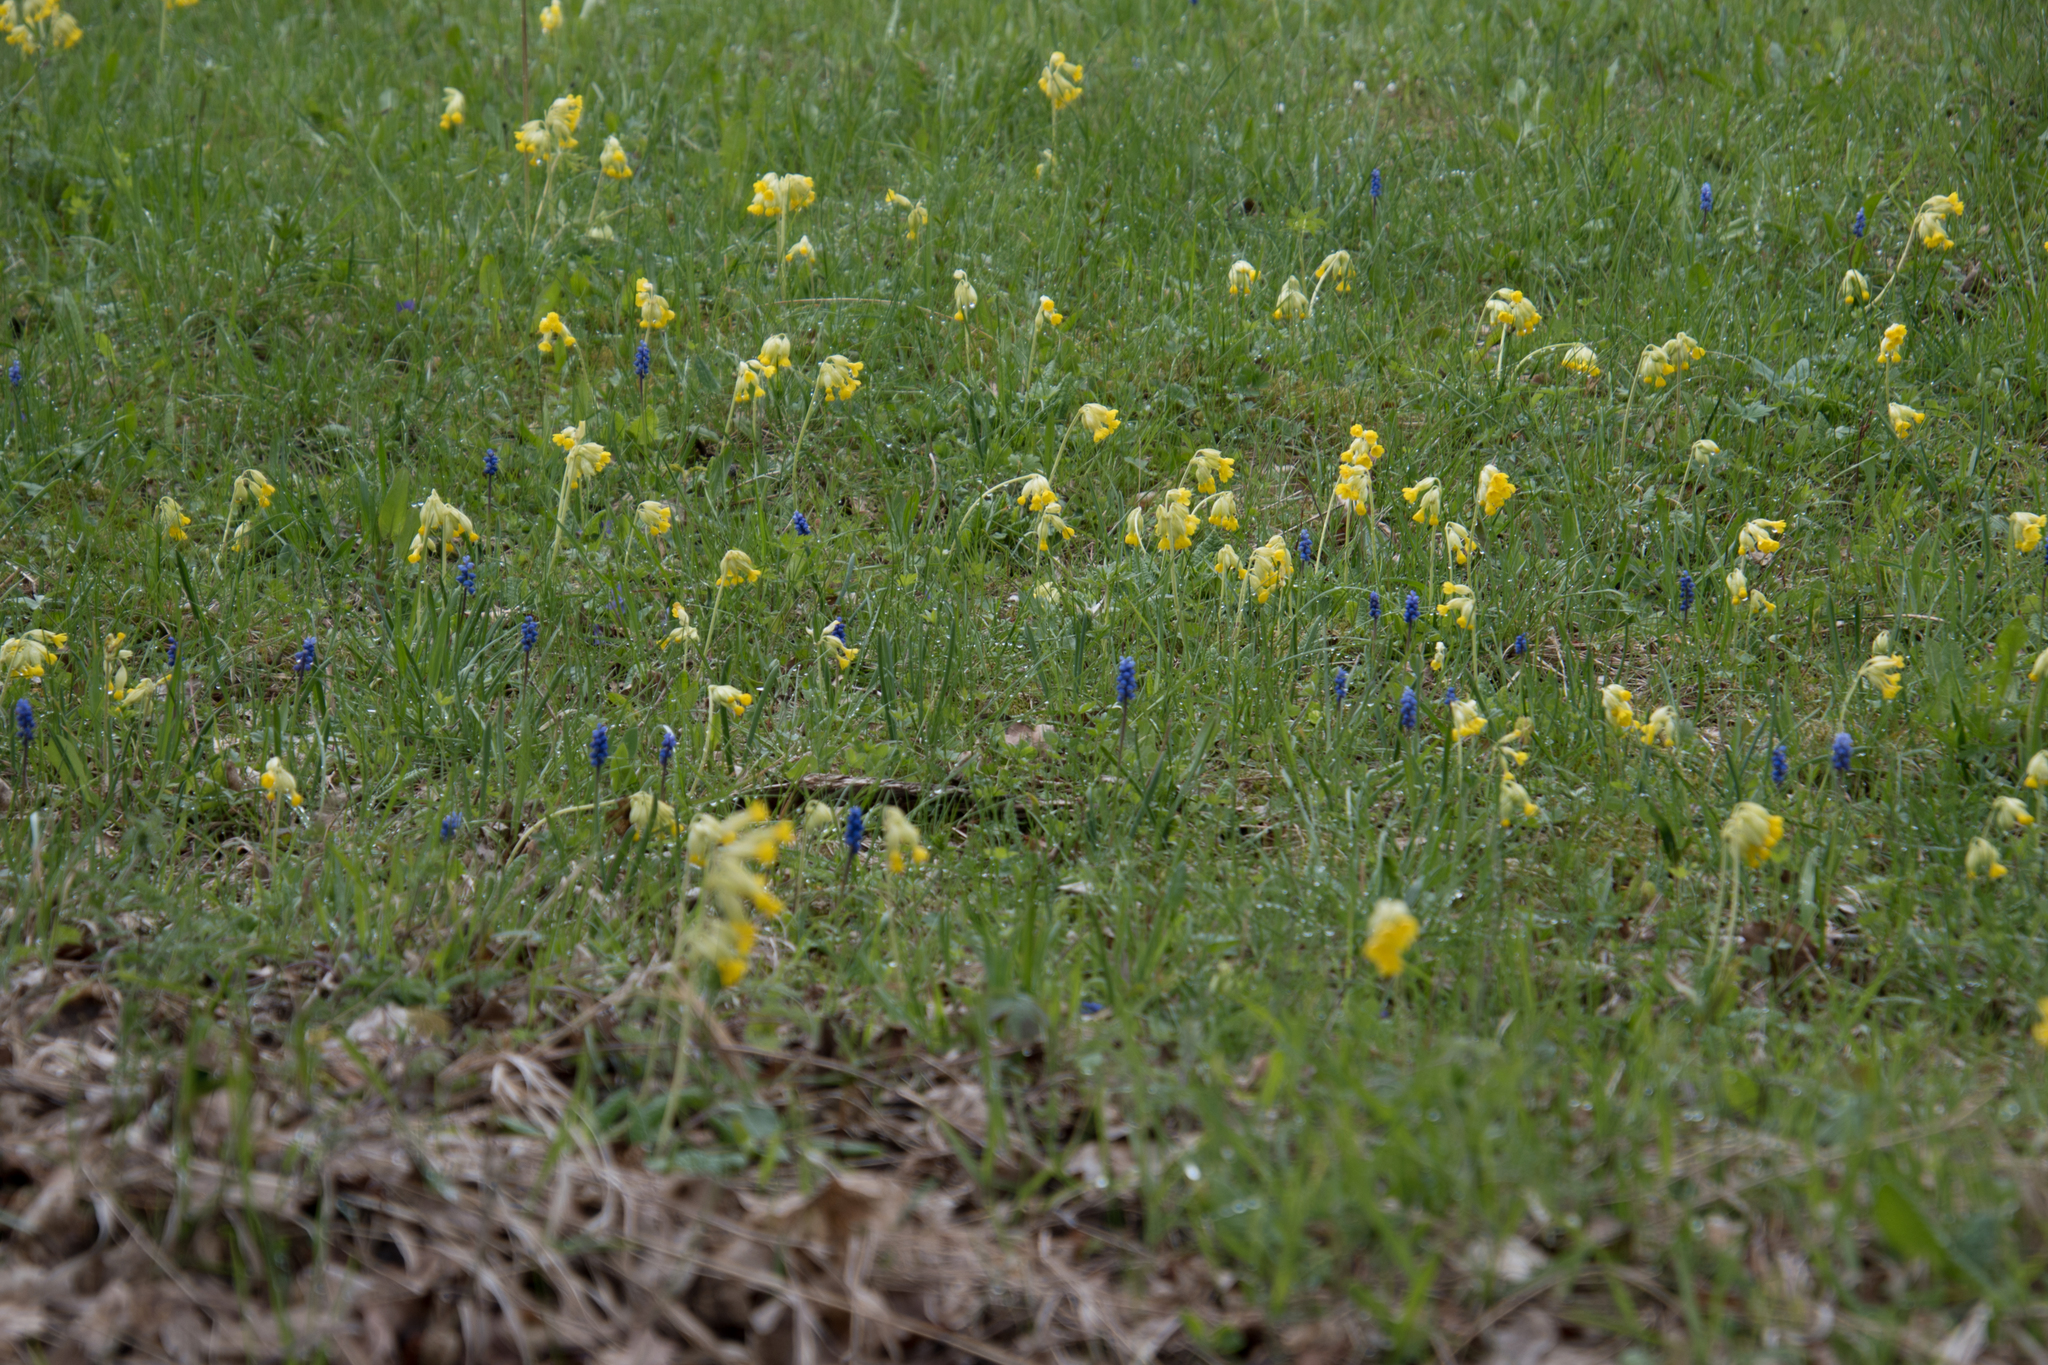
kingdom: Plantae
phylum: Tracheophyta
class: Magnoliopsida
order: Ericales
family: Primulaceae
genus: Primula
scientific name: Primula veris
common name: Cowslip
